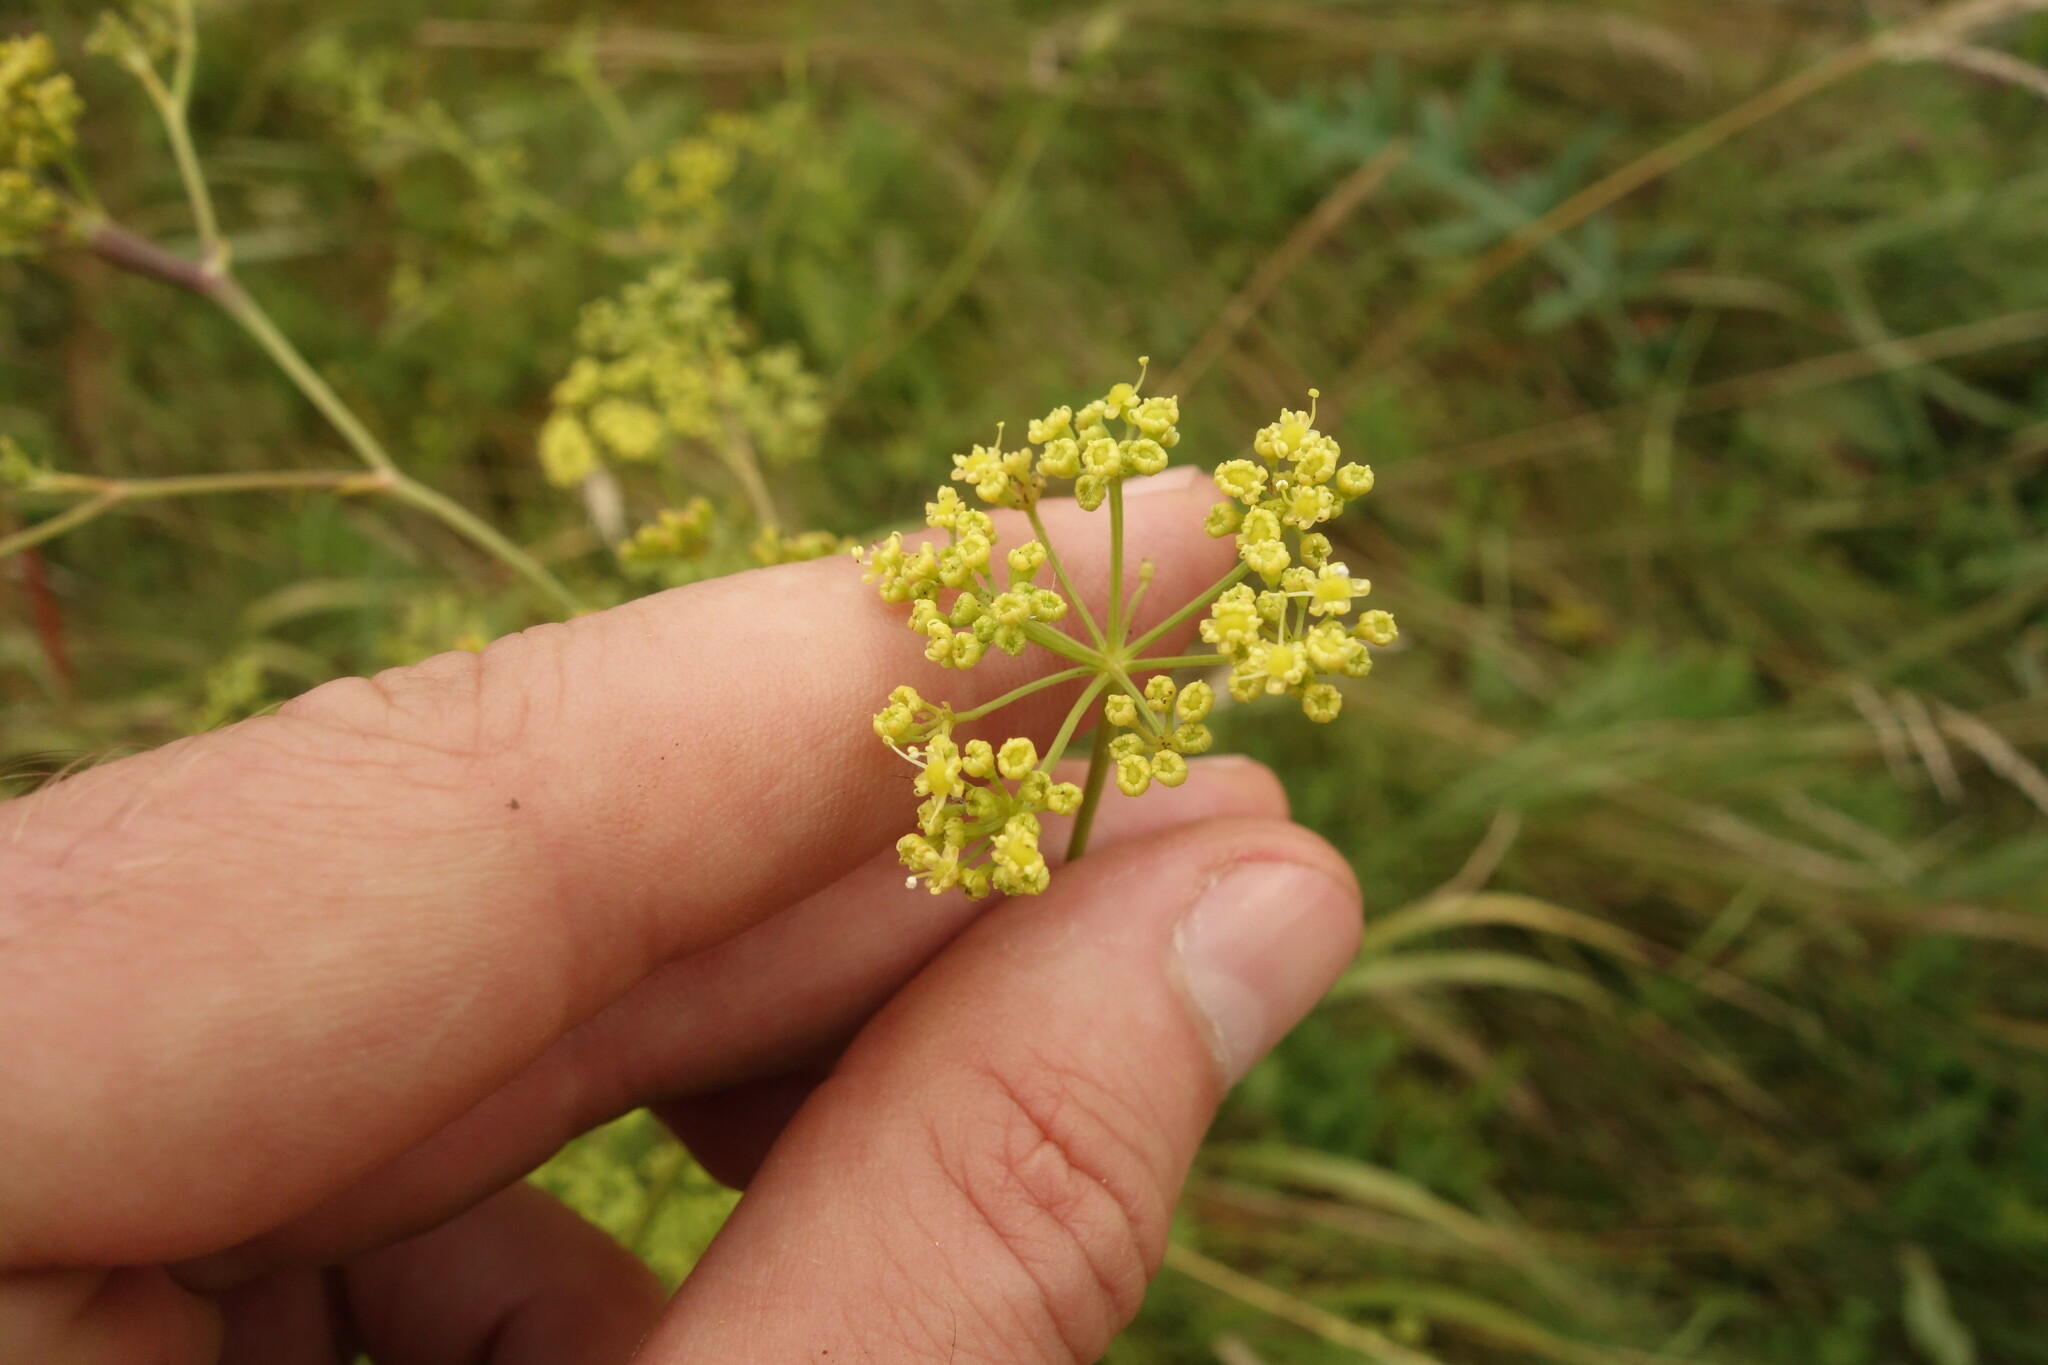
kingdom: Plantae
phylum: Tracheophyta
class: Magnoliopsida
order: Apiales
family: Apiaceae
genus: Silaum
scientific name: Silaum silaus
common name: Pepper-saxifrage
